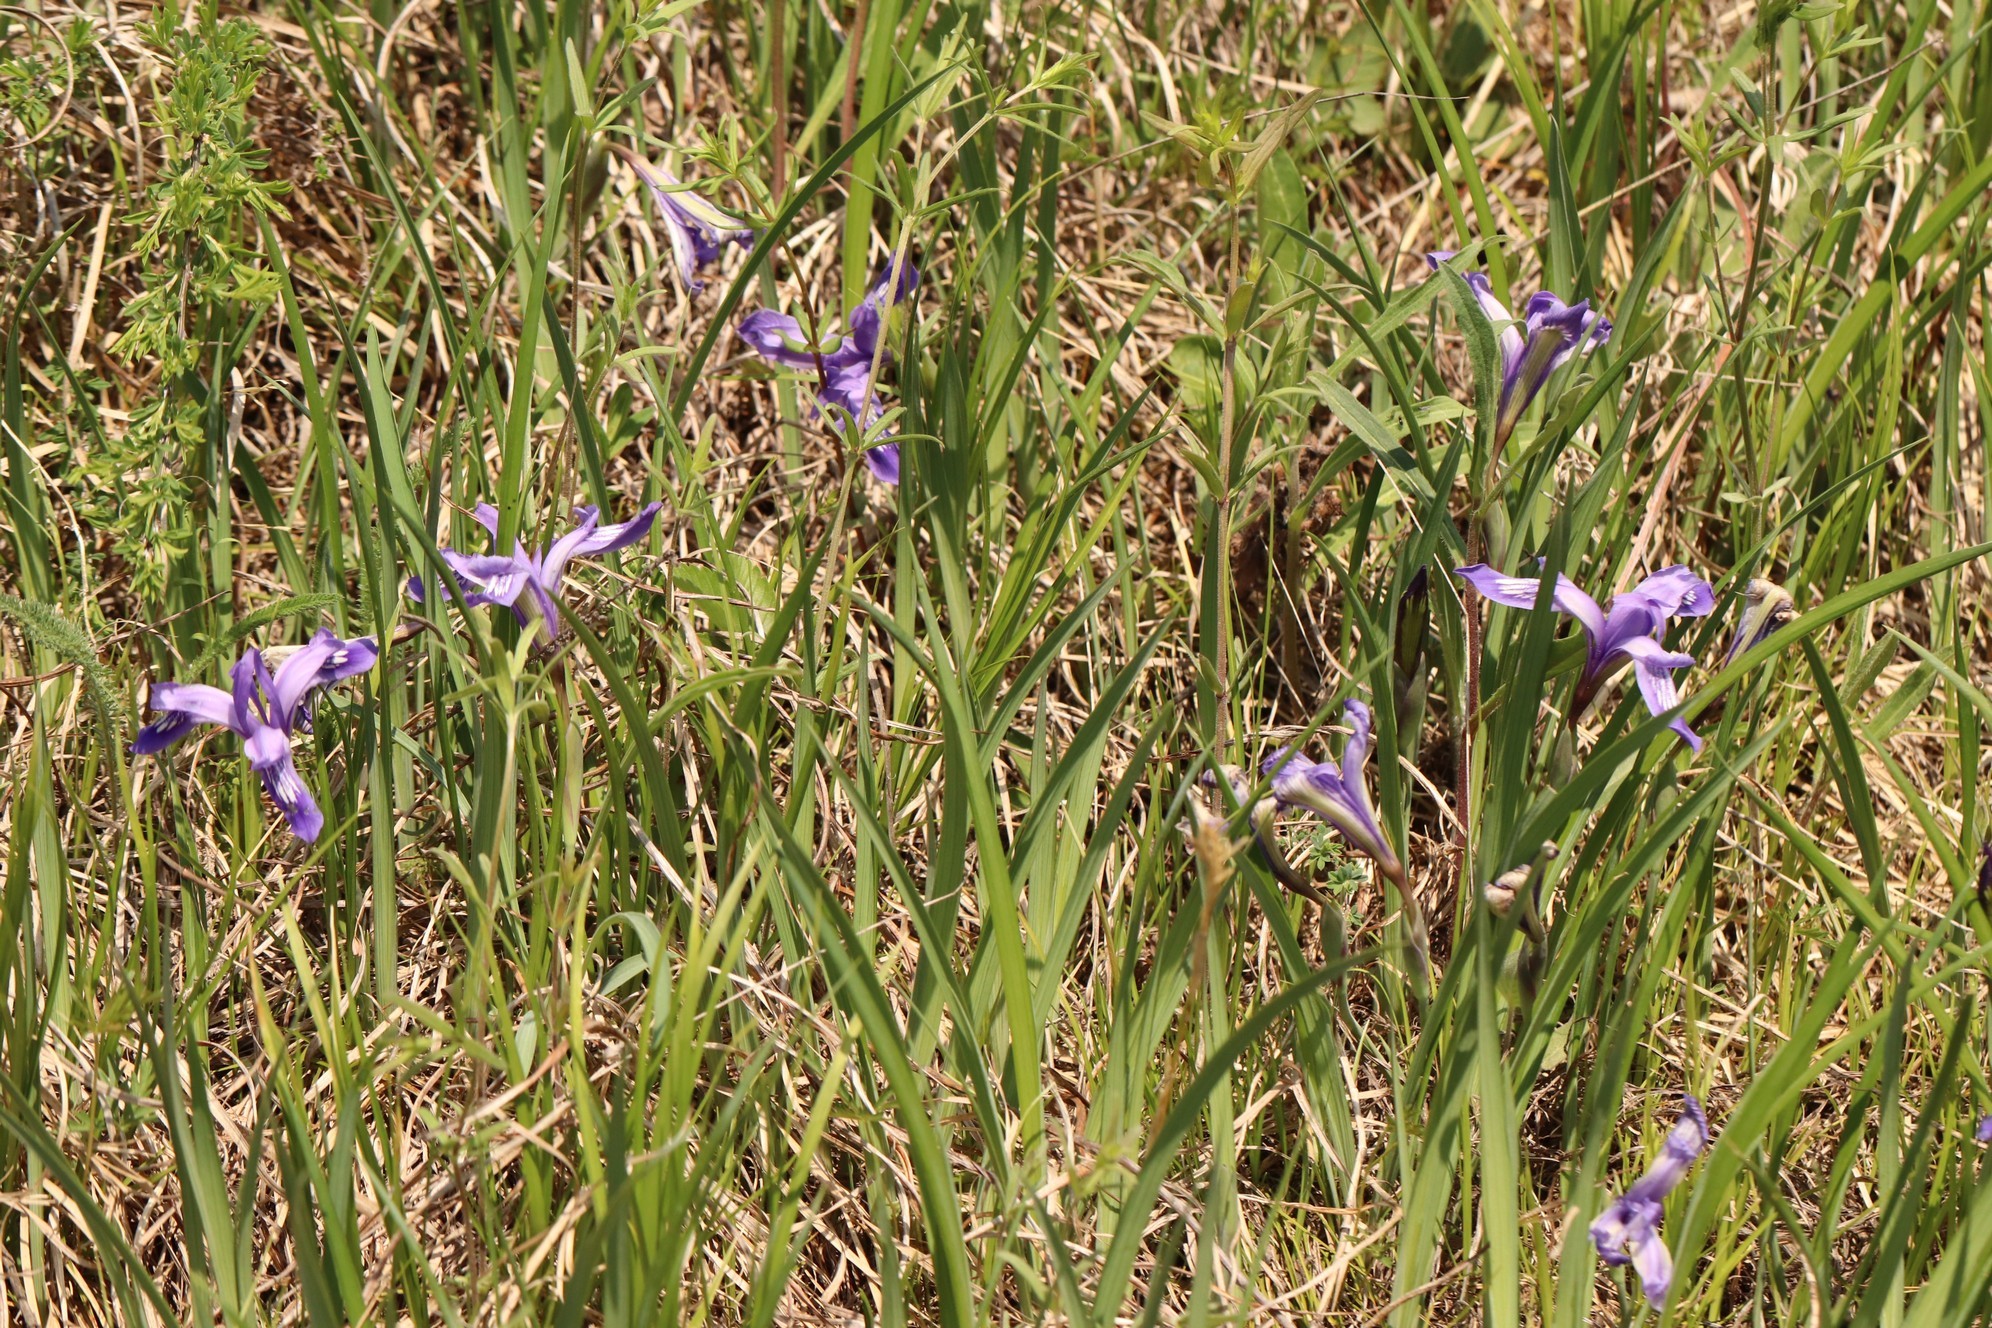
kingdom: Plantae
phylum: Tracheophyta
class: Liliopsida
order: Asparagales
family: Iridaceae
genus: Iris
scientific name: Iris ruthenica
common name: Purple-bract iris
